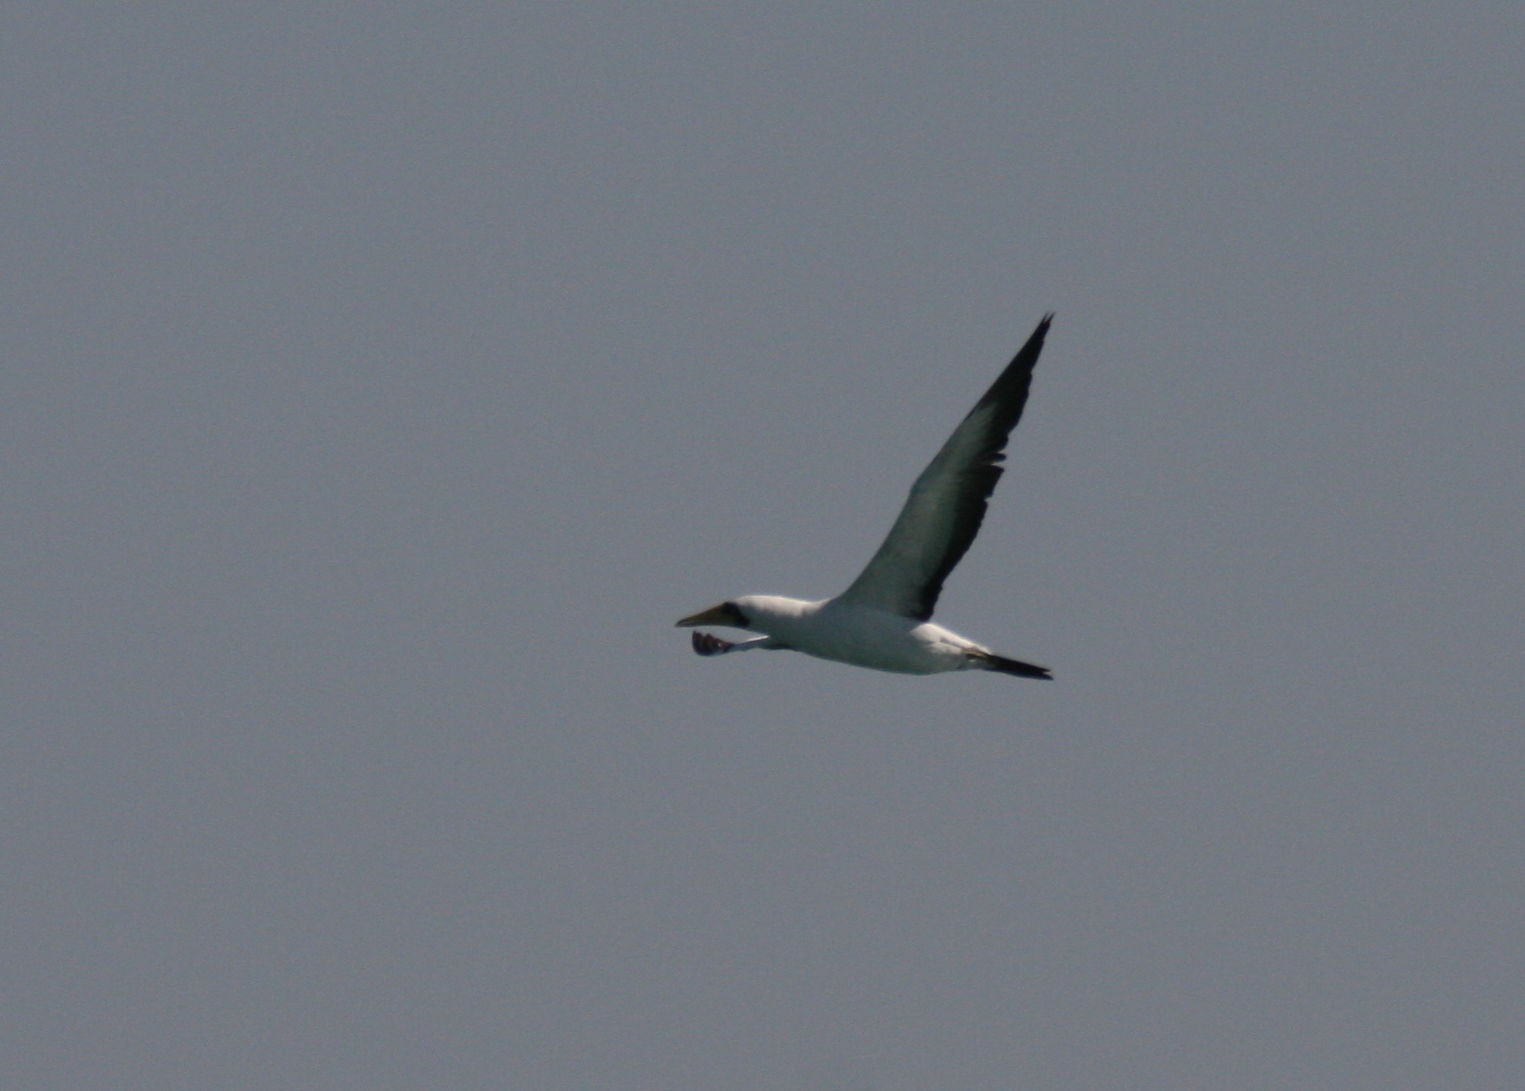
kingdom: Animalia
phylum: Chordata
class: Aves
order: Suliformes
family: Sulidae
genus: Sula
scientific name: Sula dactylatra
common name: Masked booby
